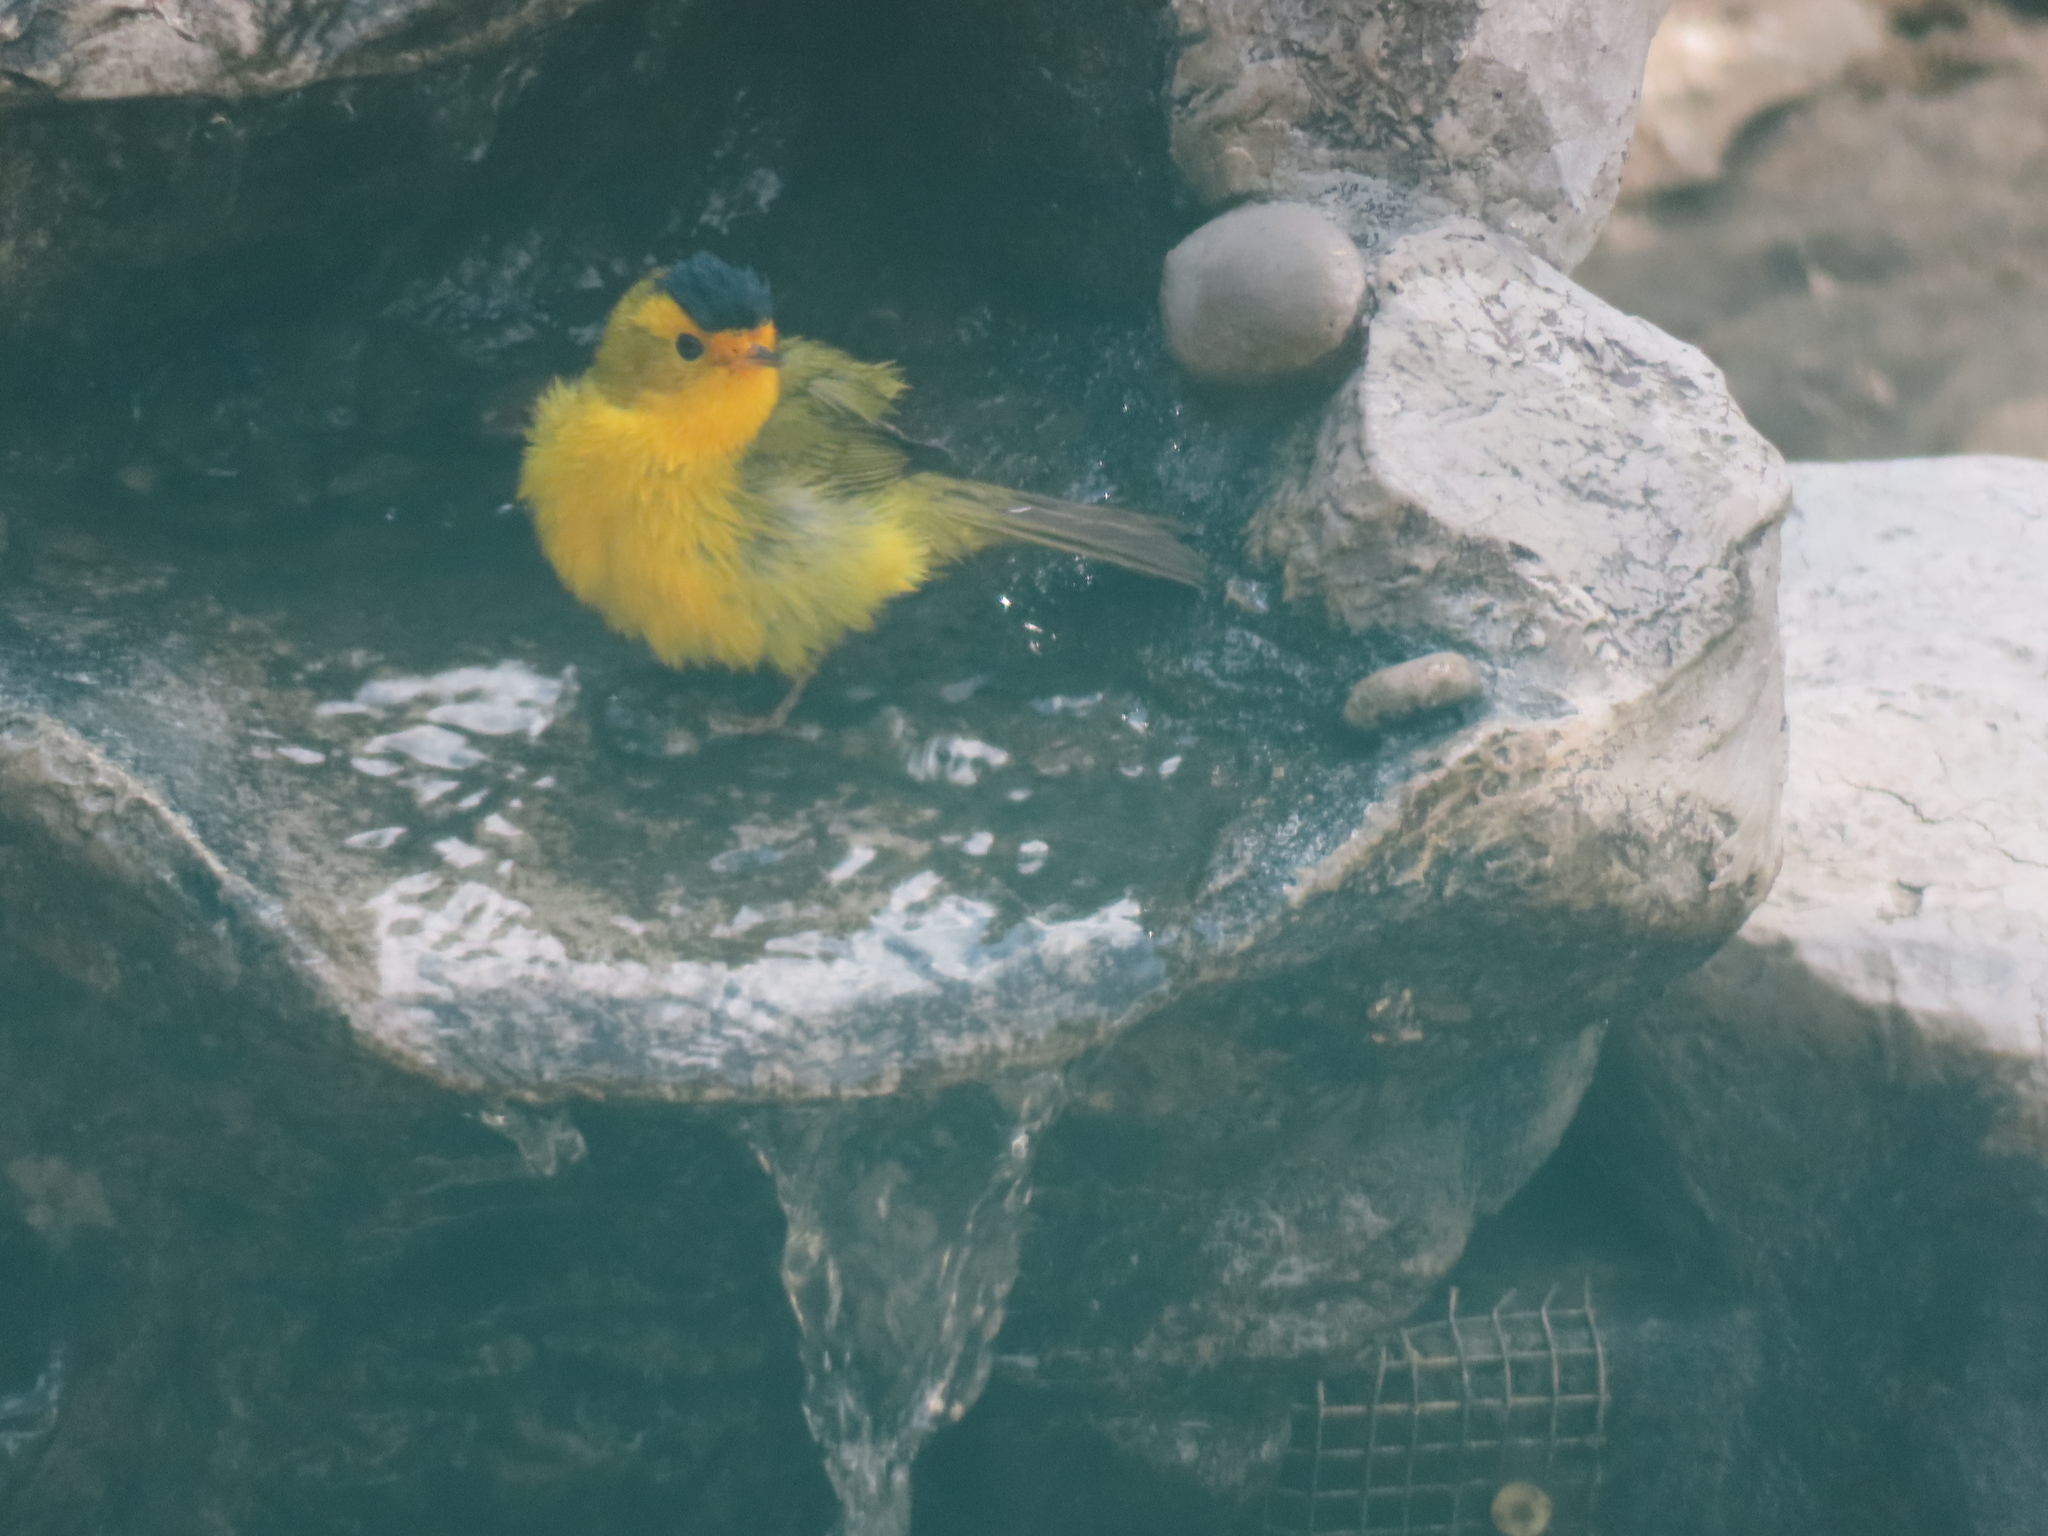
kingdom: Animalia
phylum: Chordata
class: Aves
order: Passeriformes
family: Parulidae
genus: Cardellina
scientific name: Cardellina pusilla
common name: Wilson's warbler
